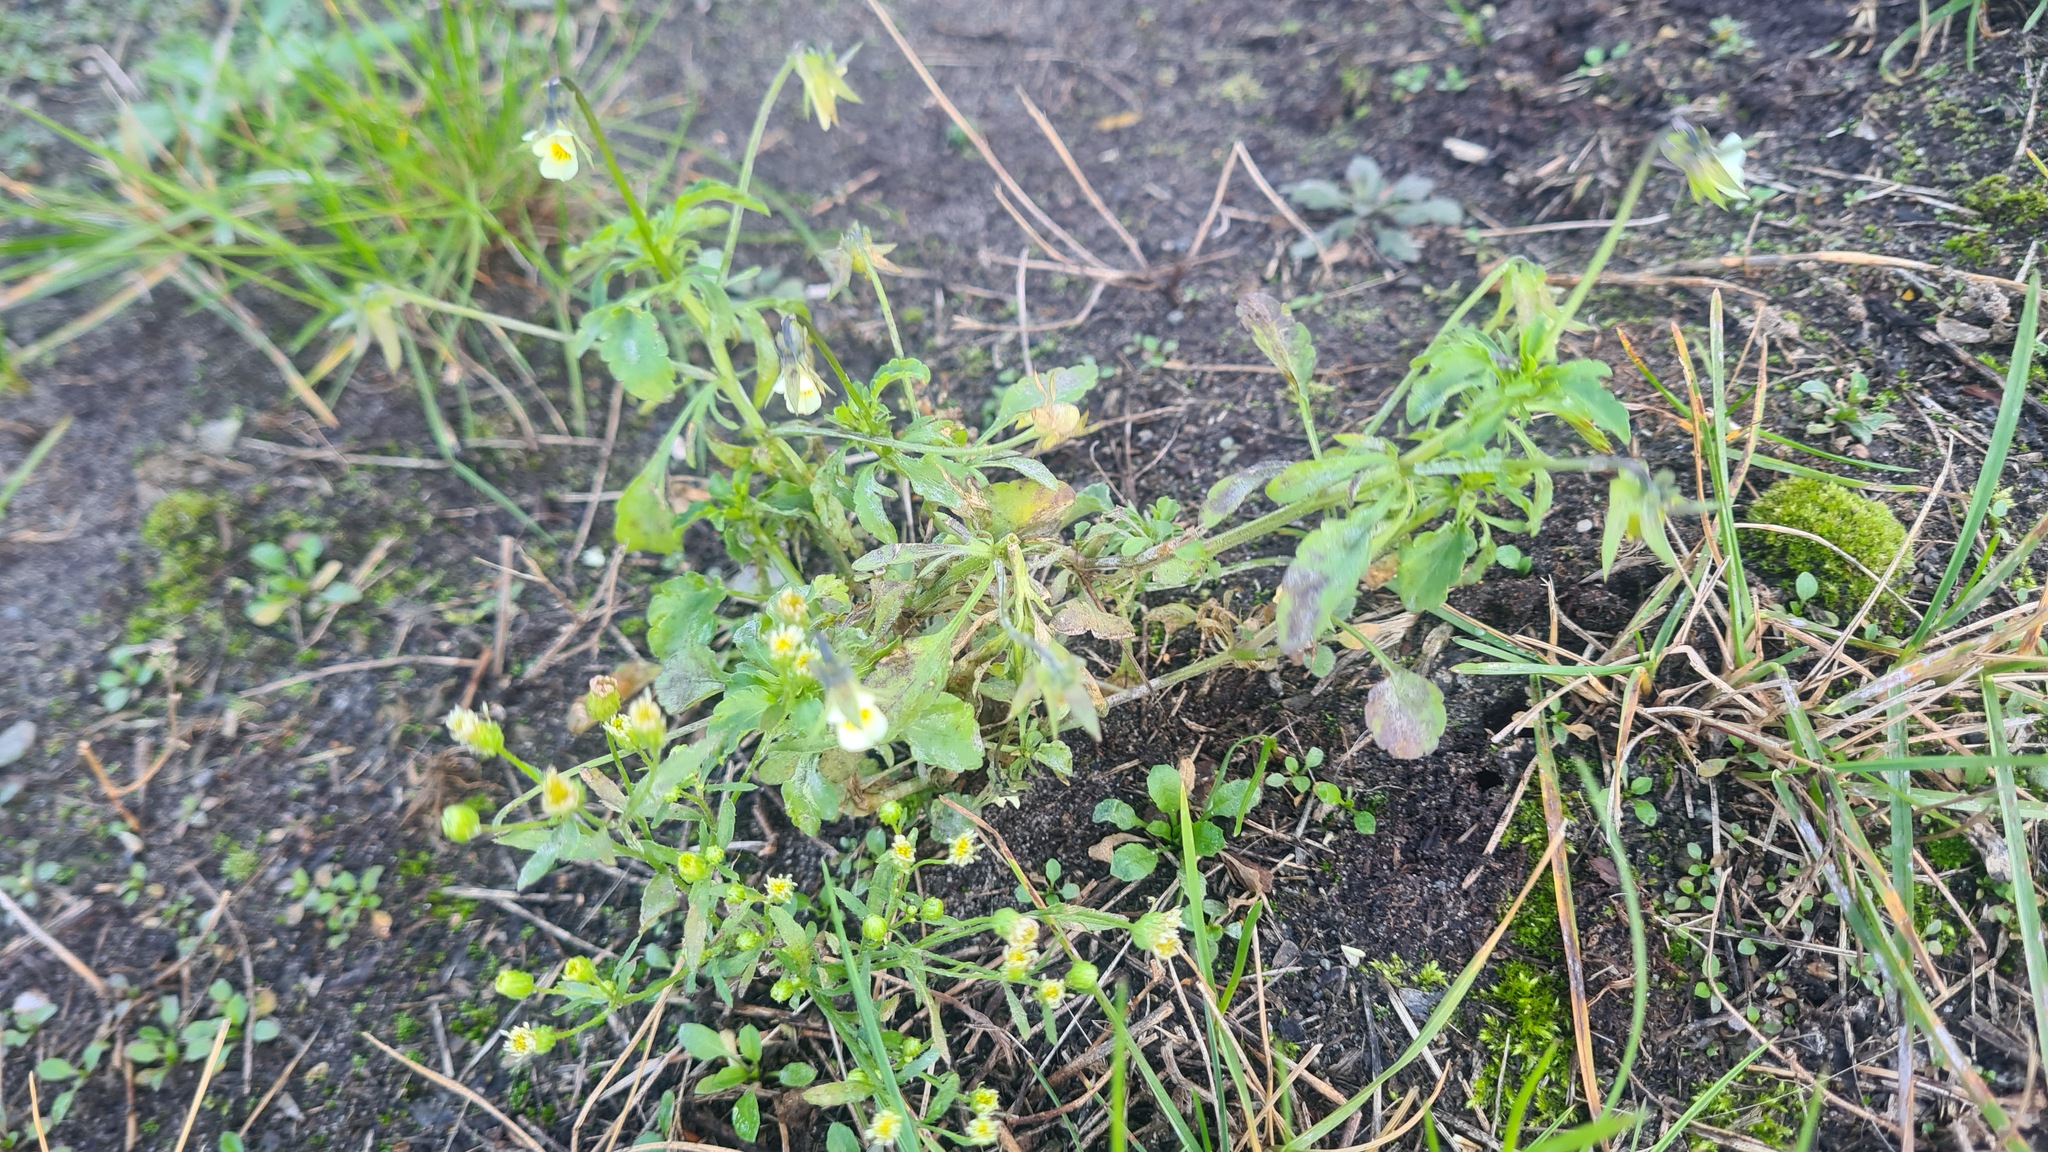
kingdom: Plantae
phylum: Tracheophyta
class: Magnoliopsida
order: Malpighiales
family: Violaceae
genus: Viola
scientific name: Viola arvensis
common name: Field pansy
